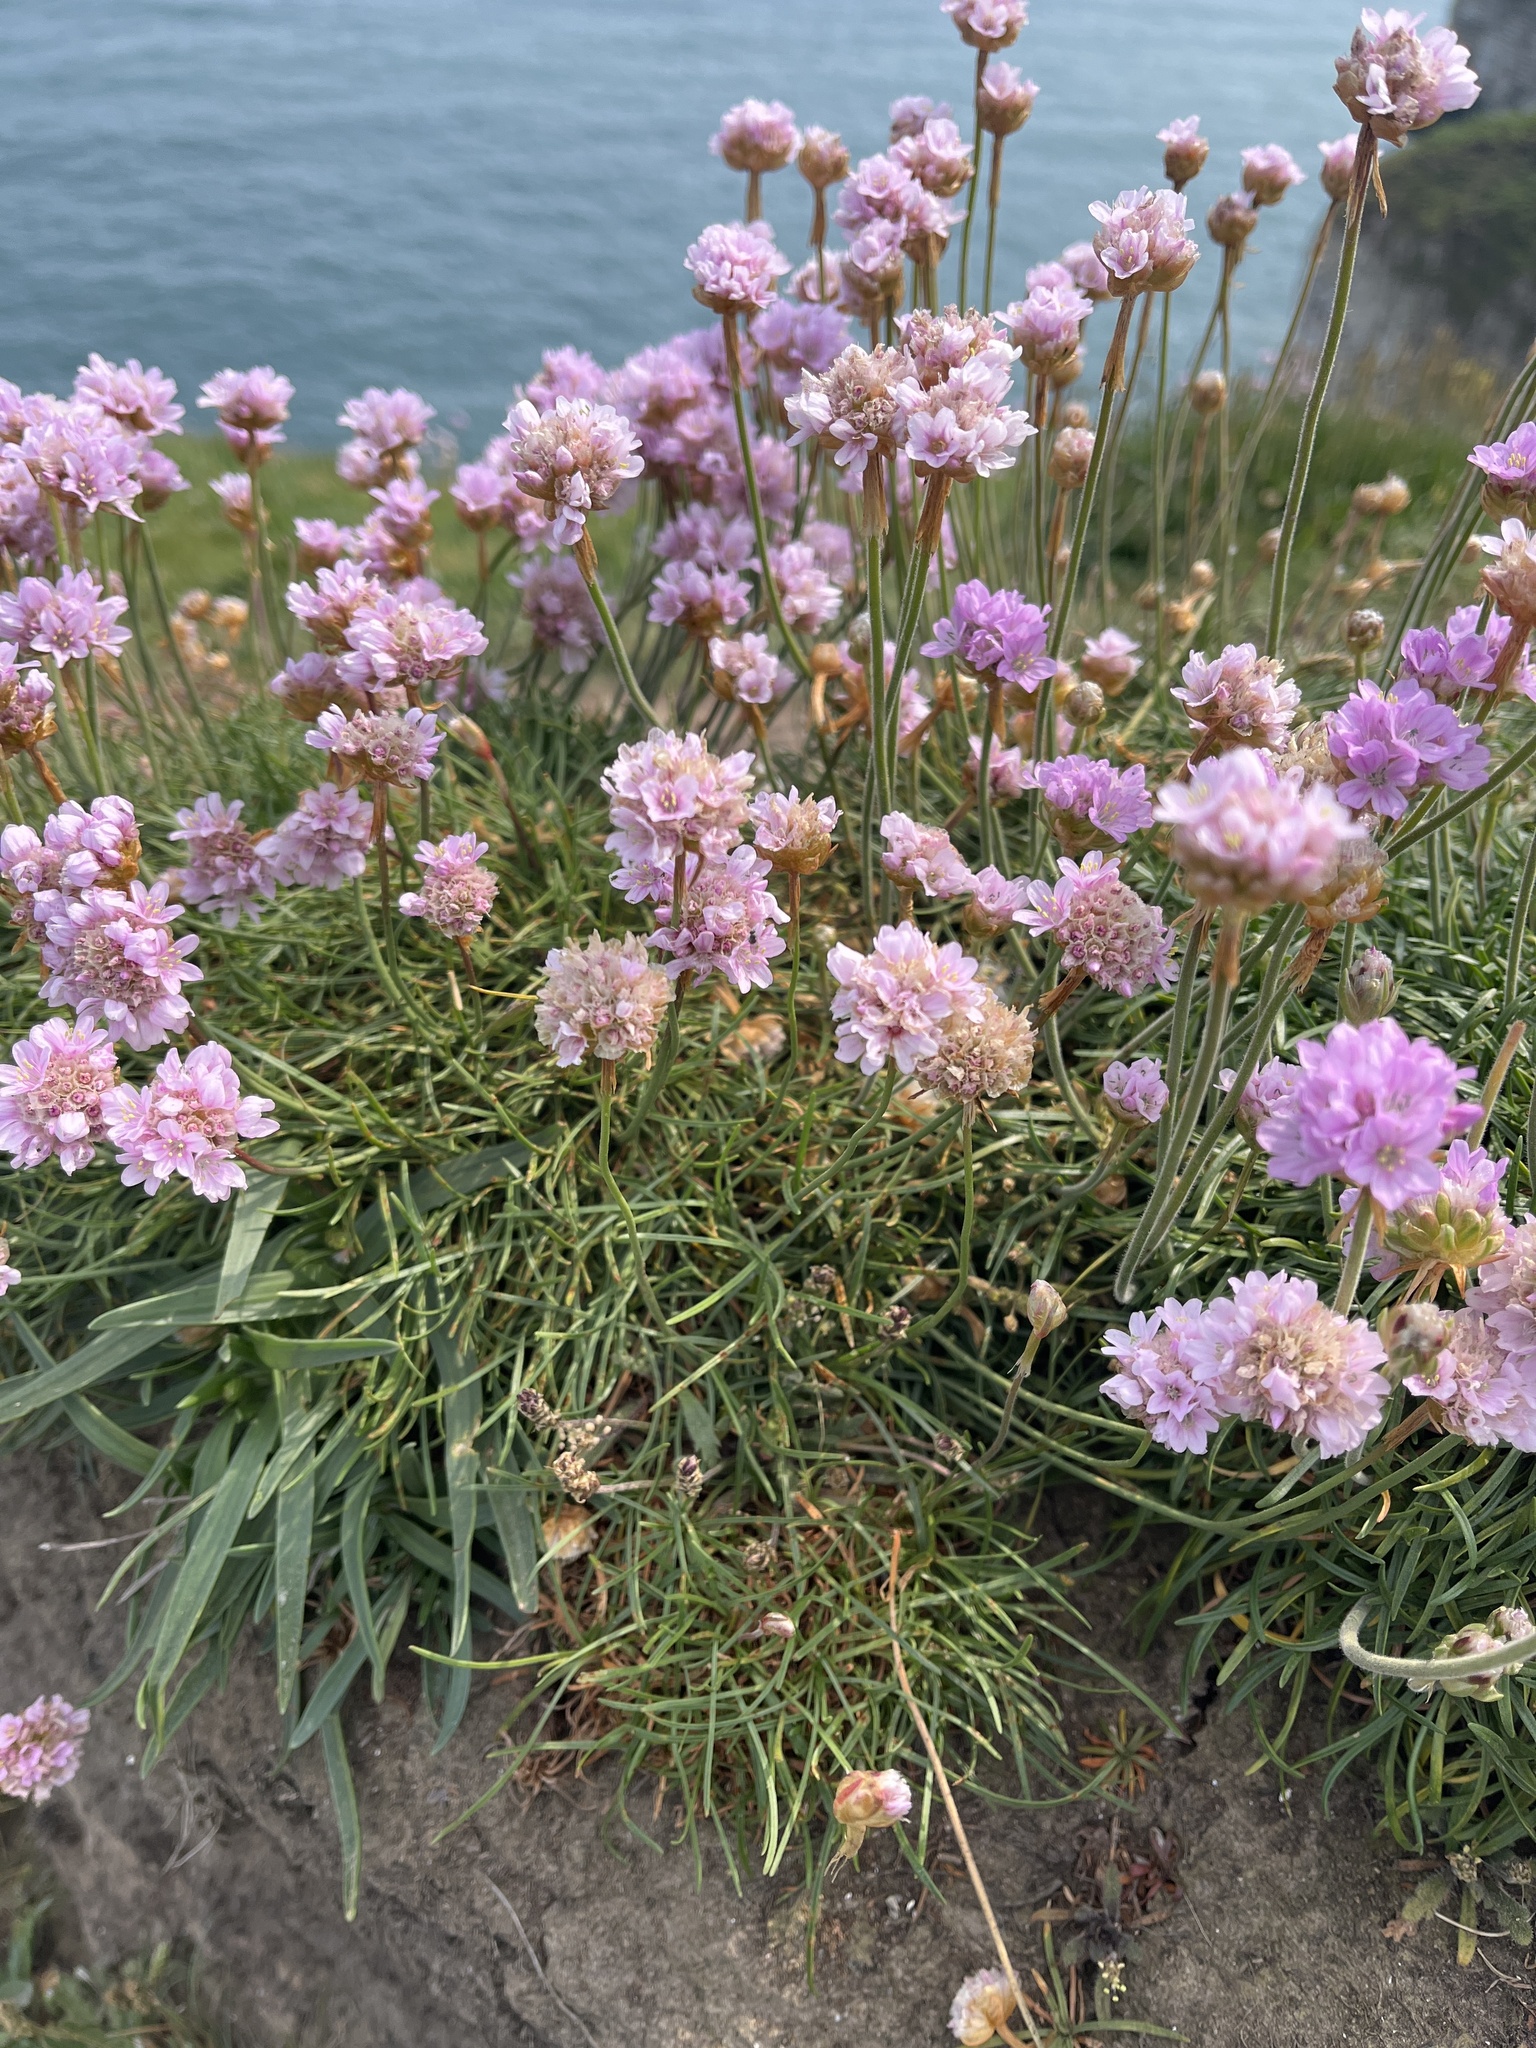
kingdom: Plantae
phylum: Tracheophyta
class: Magnoliopsida
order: Caryophyllales
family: Plumbaginaceae
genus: Armeria
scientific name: Armeria maritima
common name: Thrift
